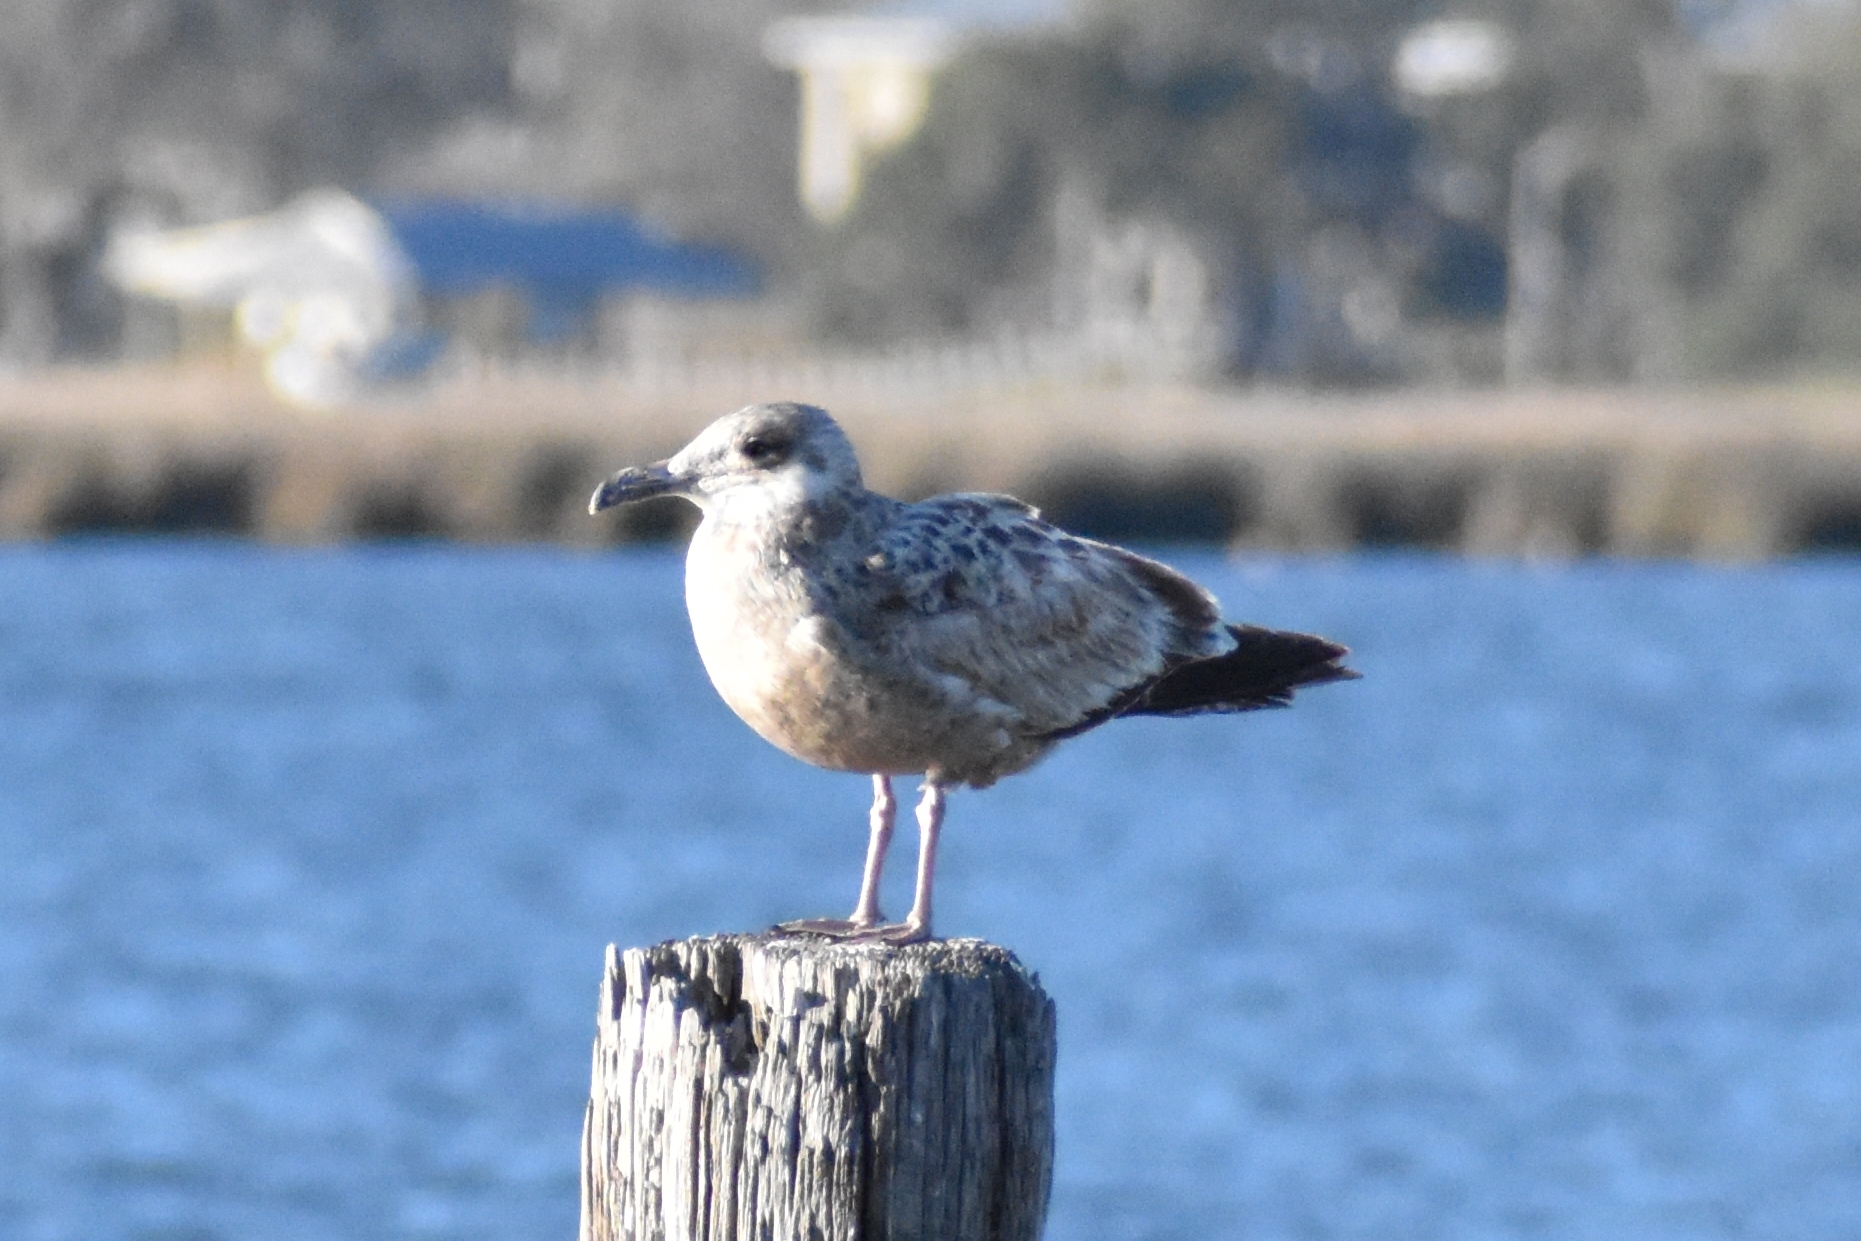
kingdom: Animalia
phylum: Chordata
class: Aves
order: Charadriiformes
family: Laridae
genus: Larus
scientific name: Larus argentatus
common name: Herring gull
